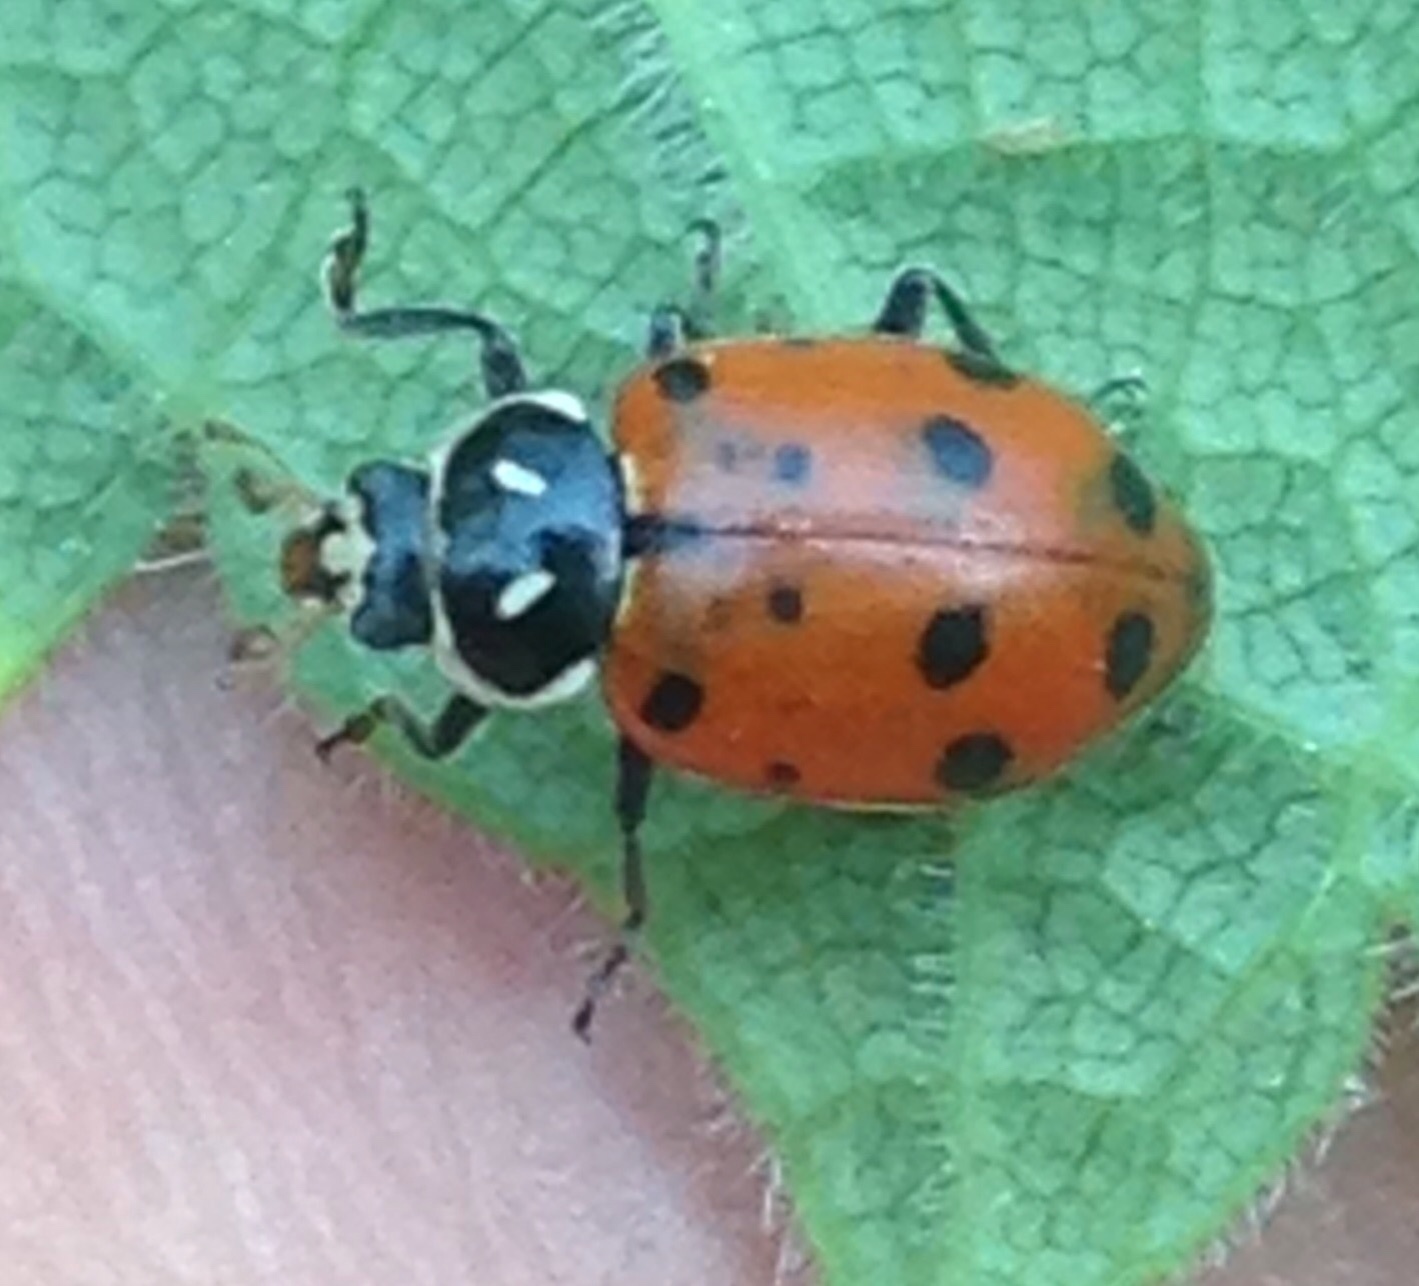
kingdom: Animalia
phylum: Arthropoda
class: Insecta
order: Coleoptera
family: Coccinellidae
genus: Hippodamia
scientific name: Hippodamia convergens
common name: Convergent lady beetle
